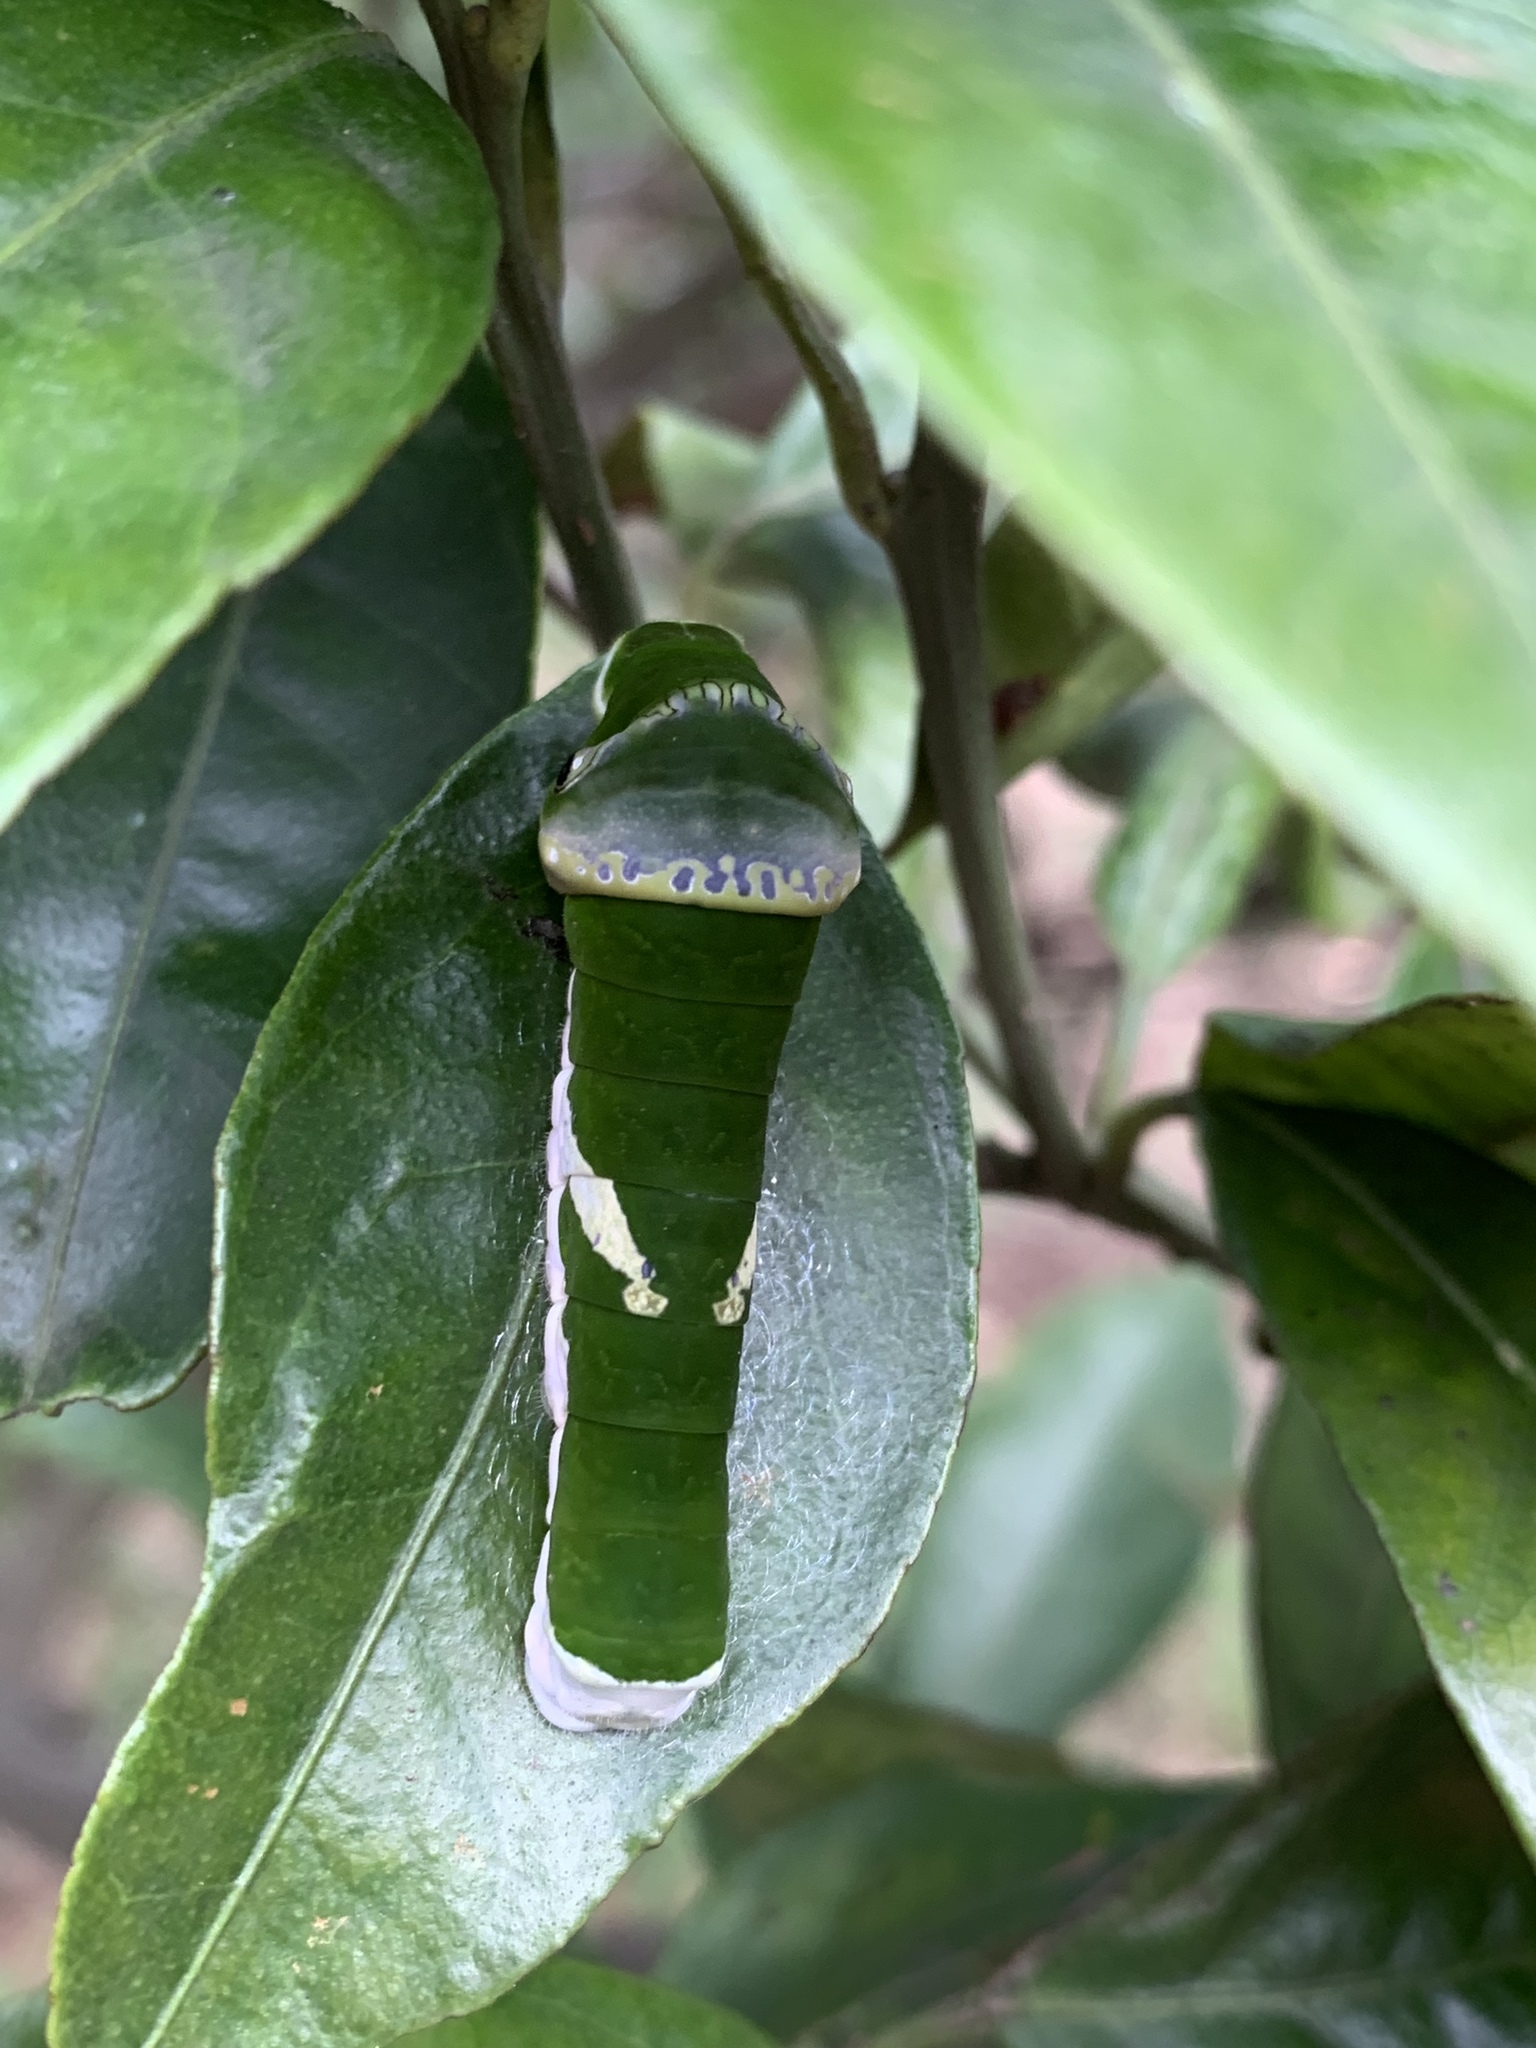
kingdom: Animalia
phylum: Arthropoda
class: Insecta
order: Lepidoptera
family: Papilionidae
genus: Papilio
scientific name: Papilio memnon
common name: Great mormon
